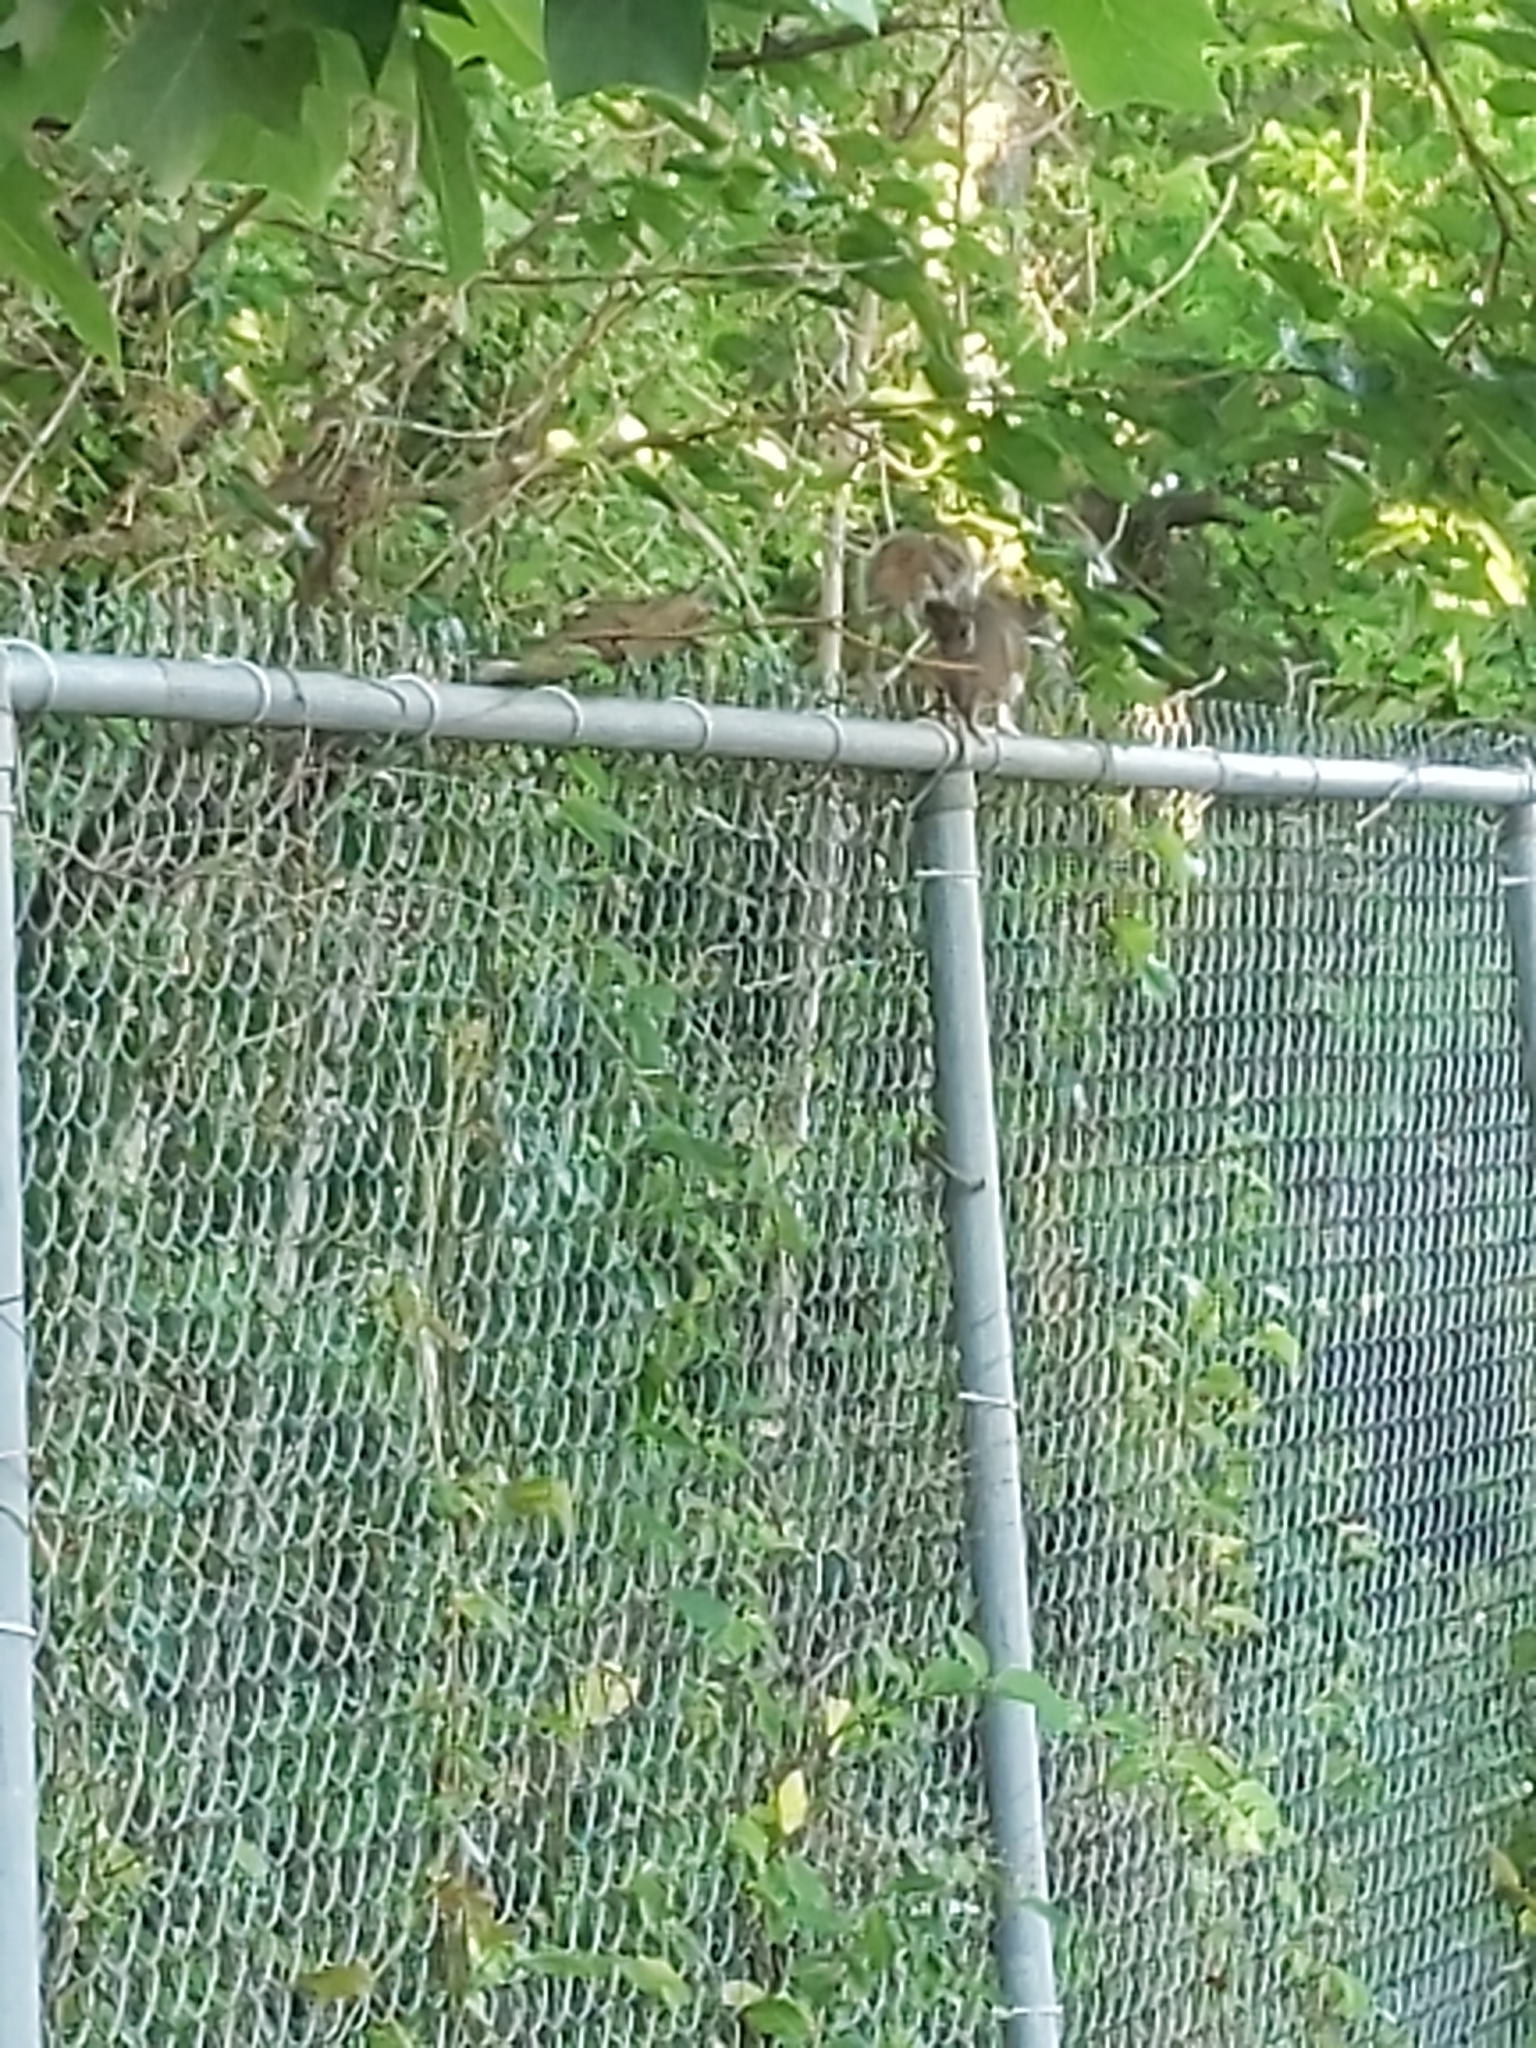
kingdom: Animalia
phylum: Chordata
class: Mammalia
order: Rodentia
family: Sciuridae
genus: Sciurus
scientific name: Sciurus carolinensis
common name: Eastern gray squirrel
